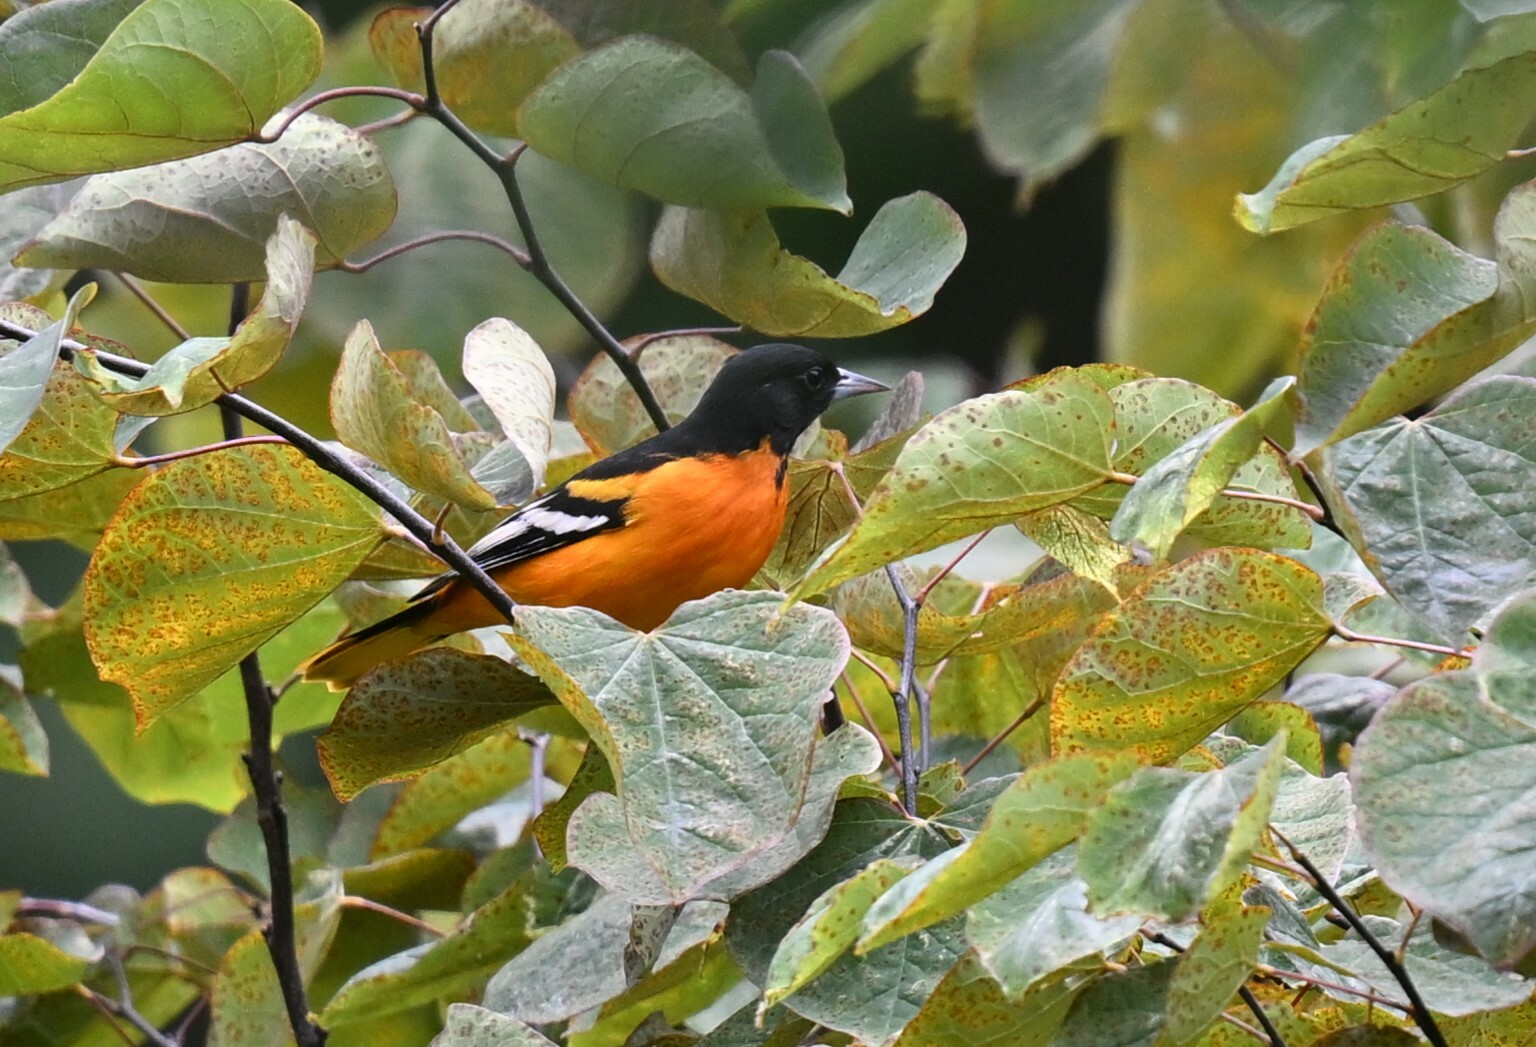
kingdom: Animalia
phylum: Chordata
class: Aves
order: Passeriformes
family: Icteridae
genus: Icterus
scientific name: Icterus galbula
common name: Baltimore oriole
